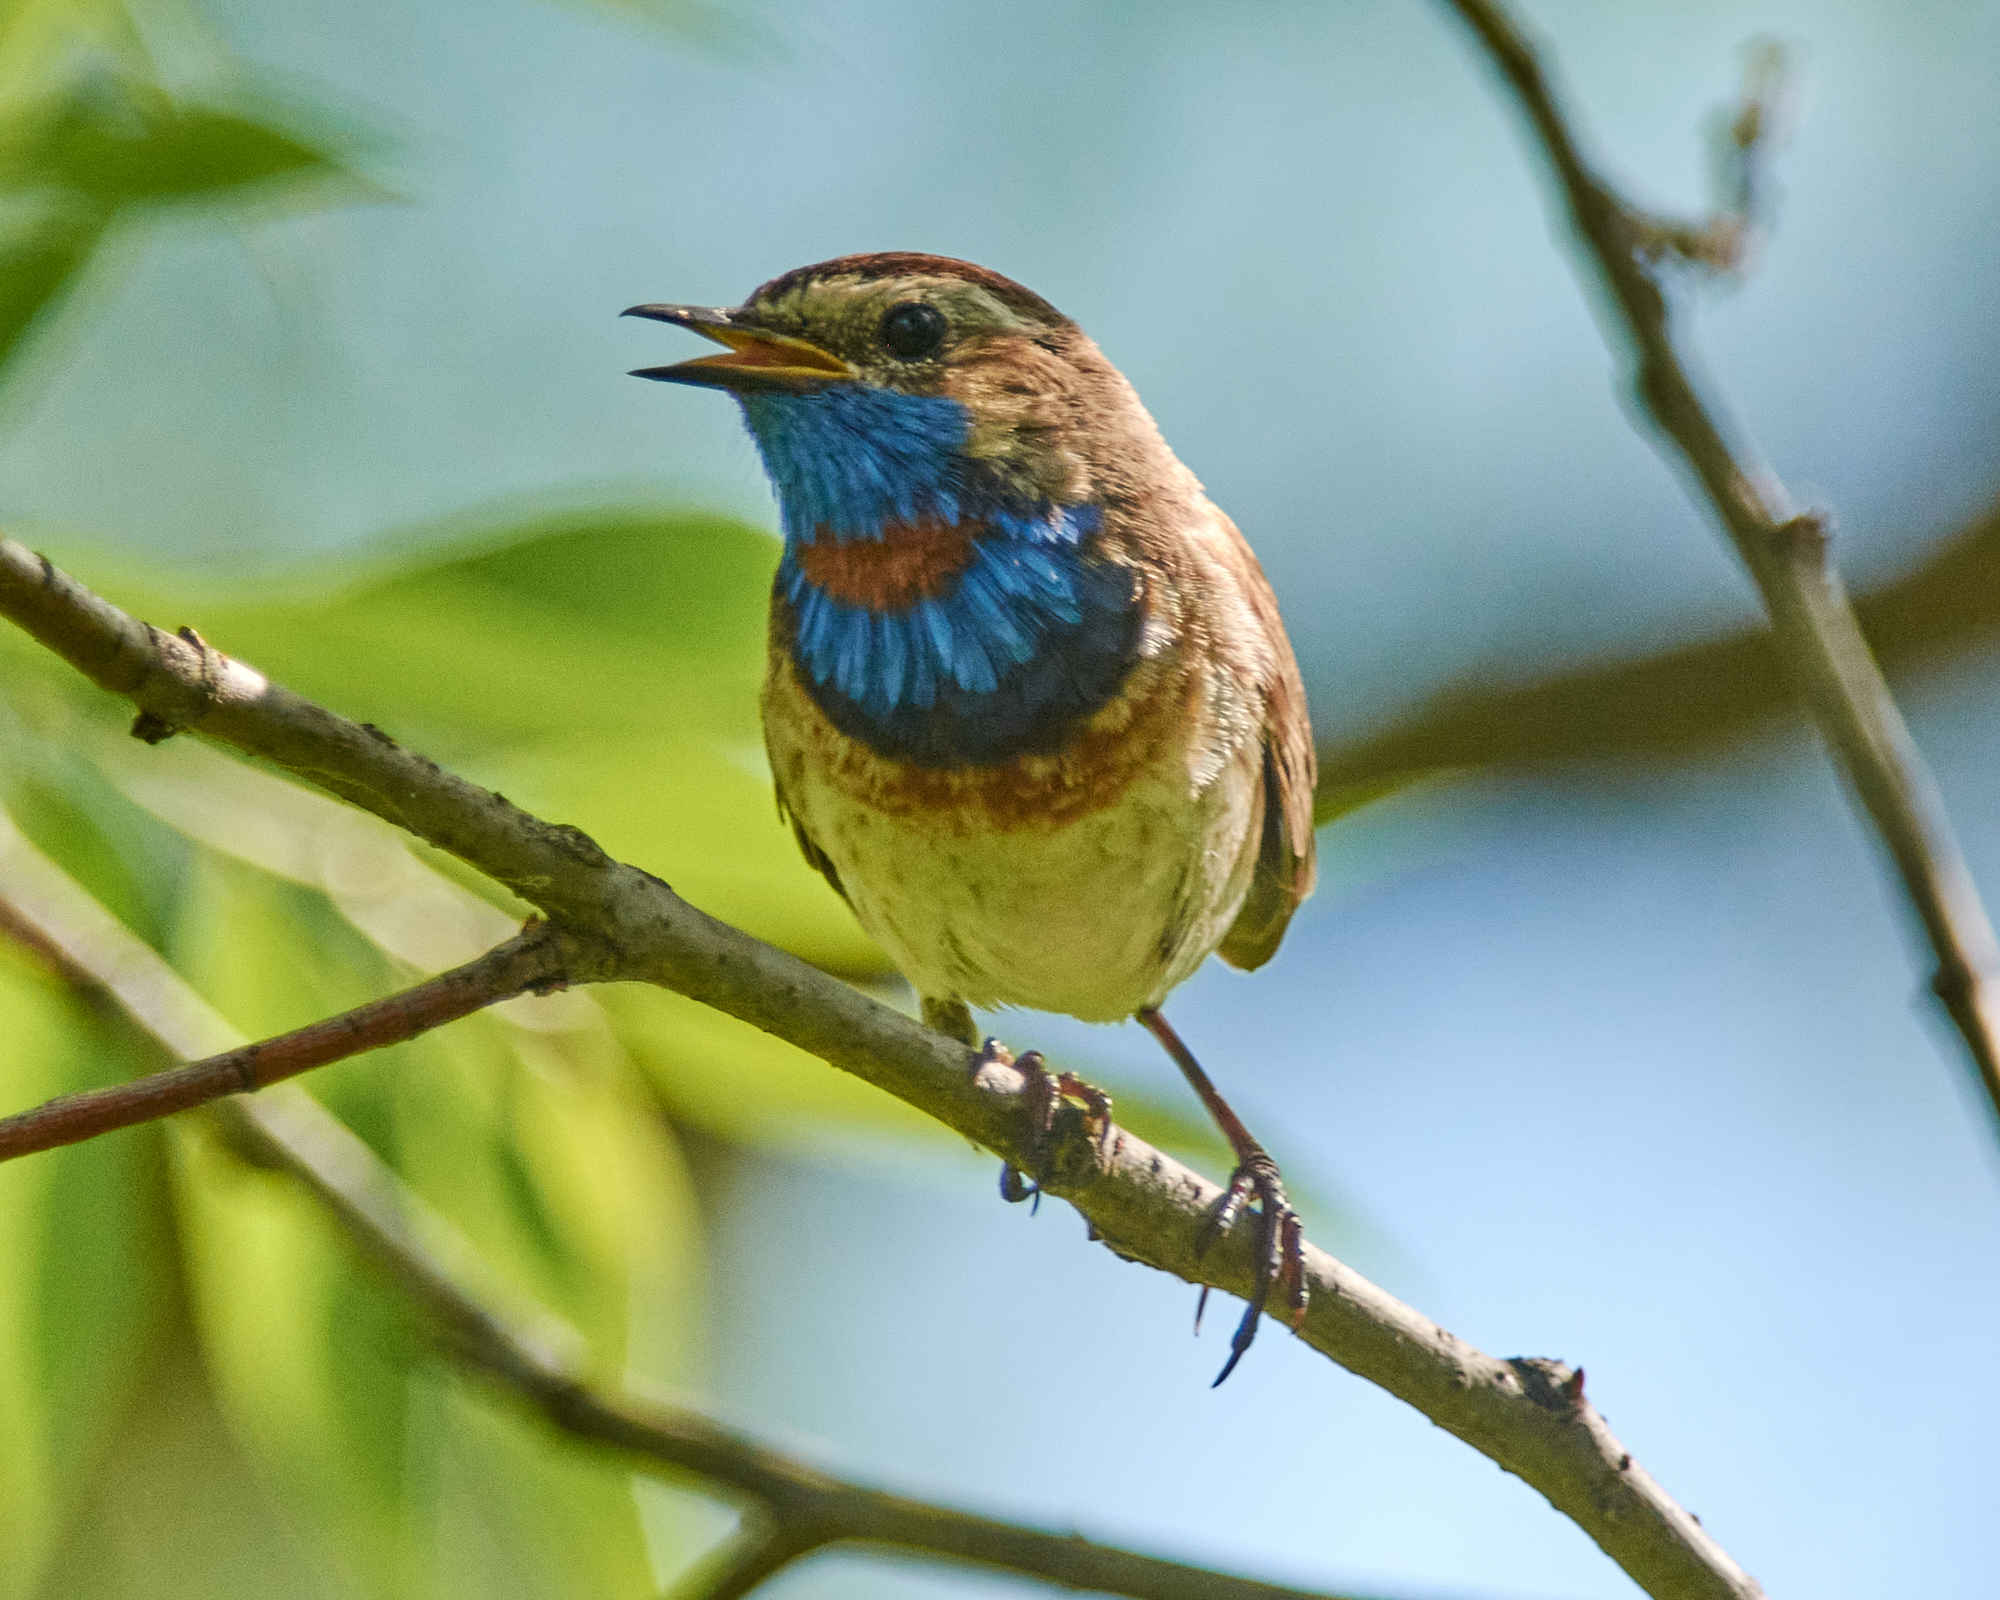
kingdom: Animalia
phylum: Chordata
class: Aves
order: Passeriformes
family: Muscicapidae
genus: Luscinia
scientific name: Luscinia svecica
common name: Bluethroat
